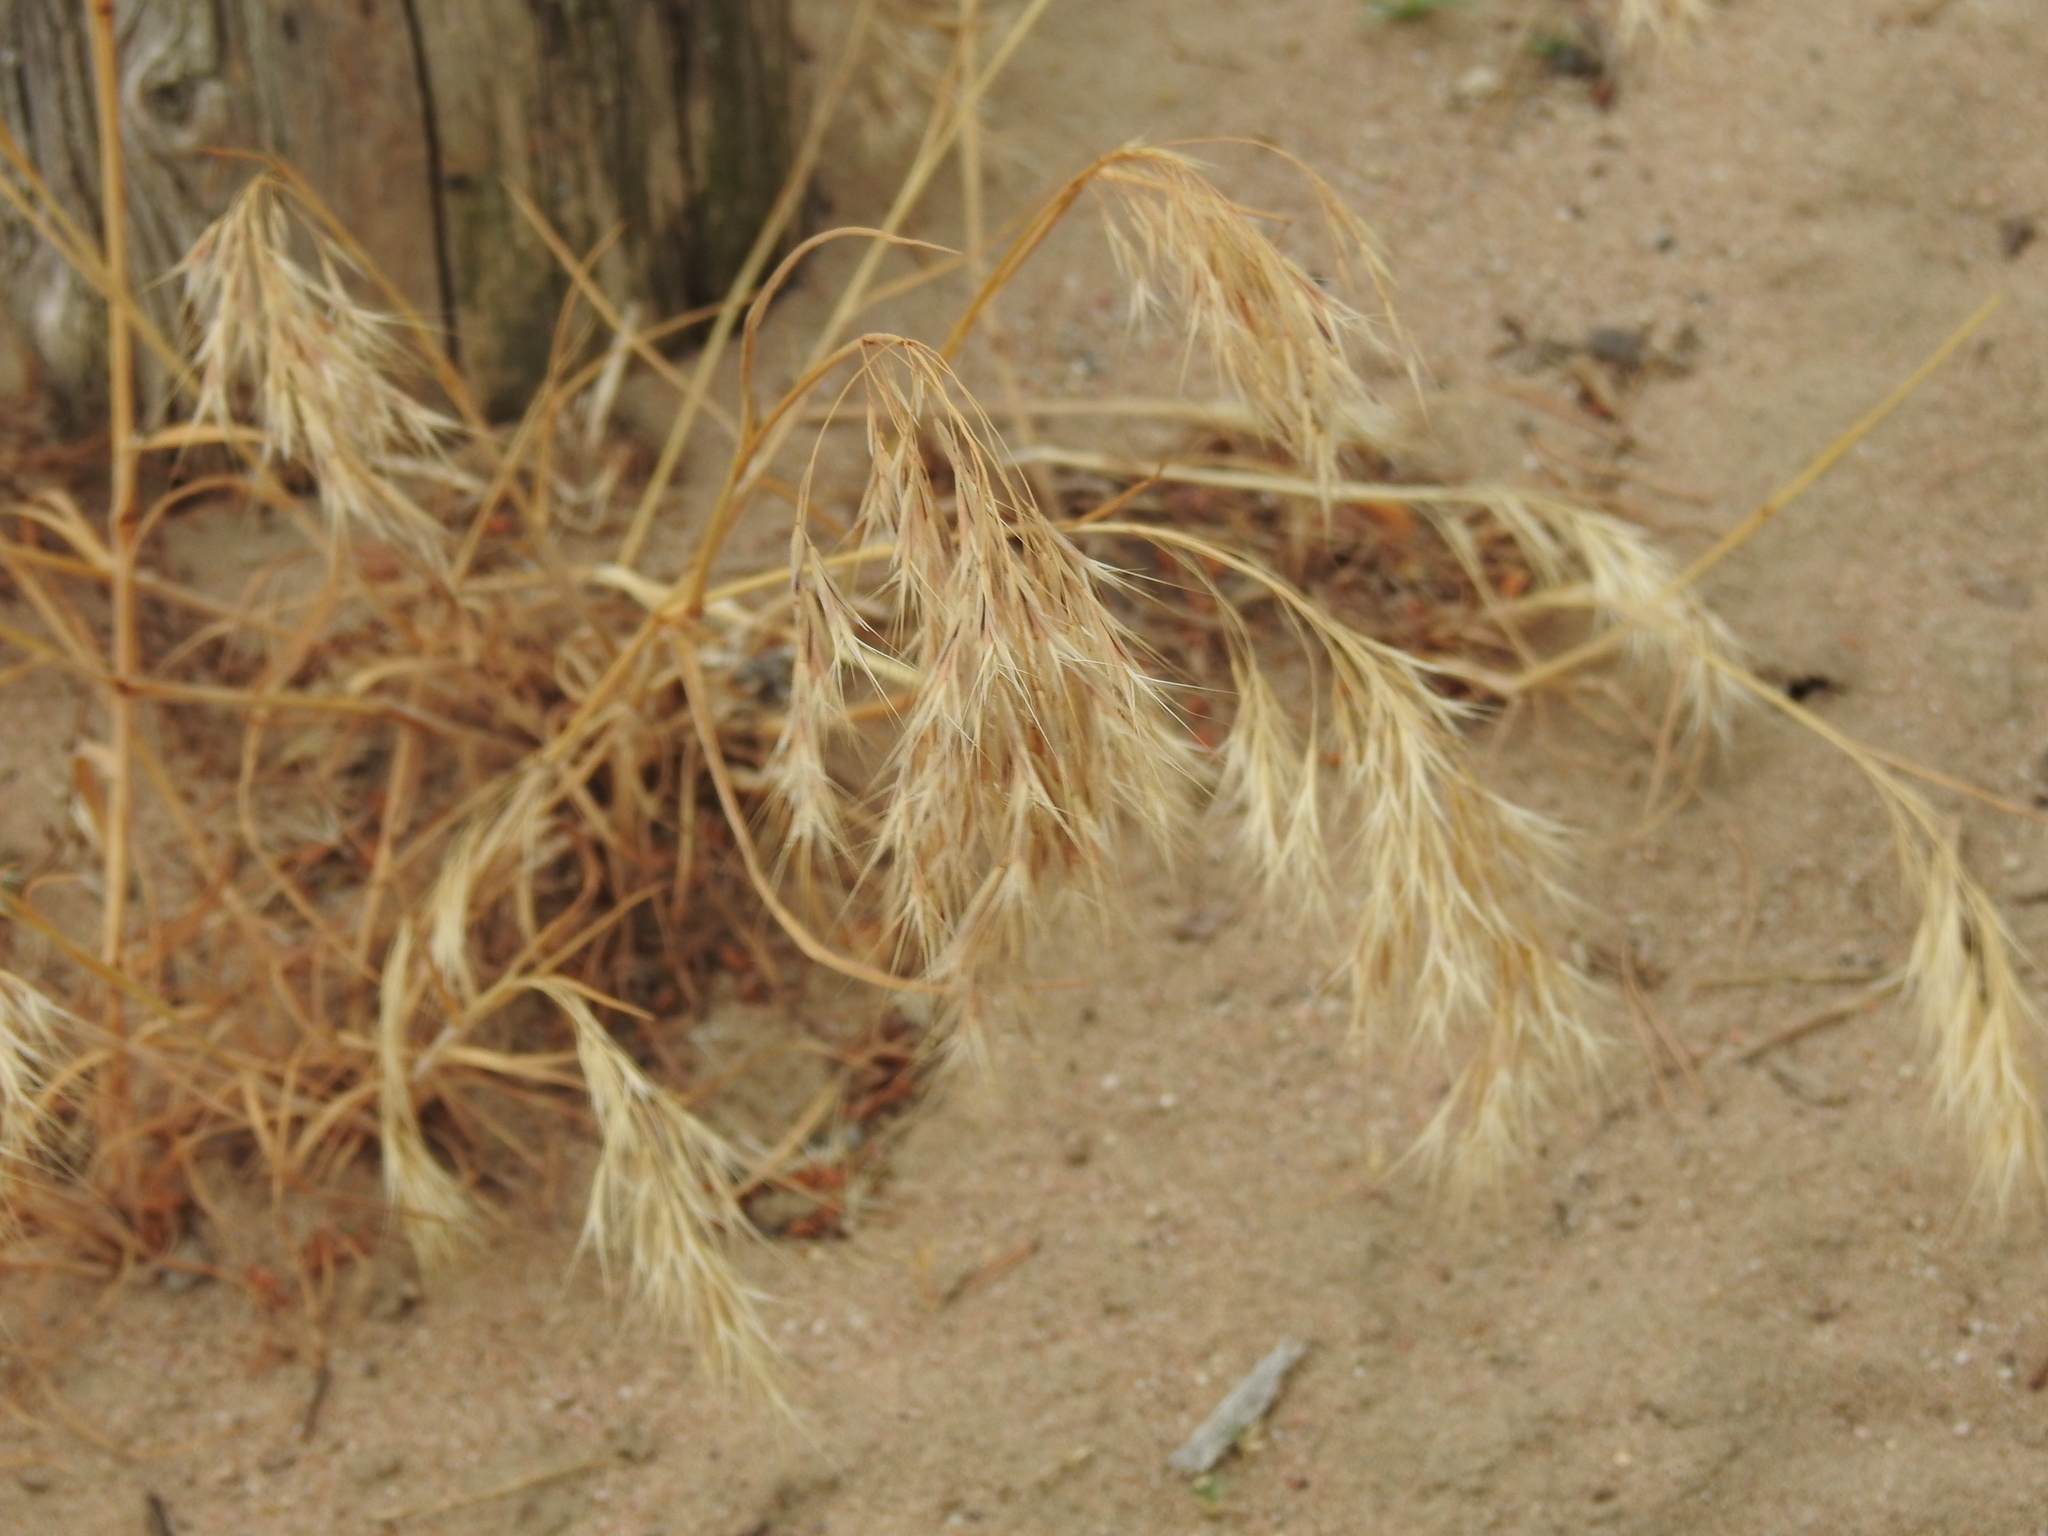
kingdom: Plantae
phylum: Tracheophyta
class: Liliopsida
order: Poales
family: Poaceae
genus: Bromus
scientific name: Bromus tectorum
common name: Cheatgrass
